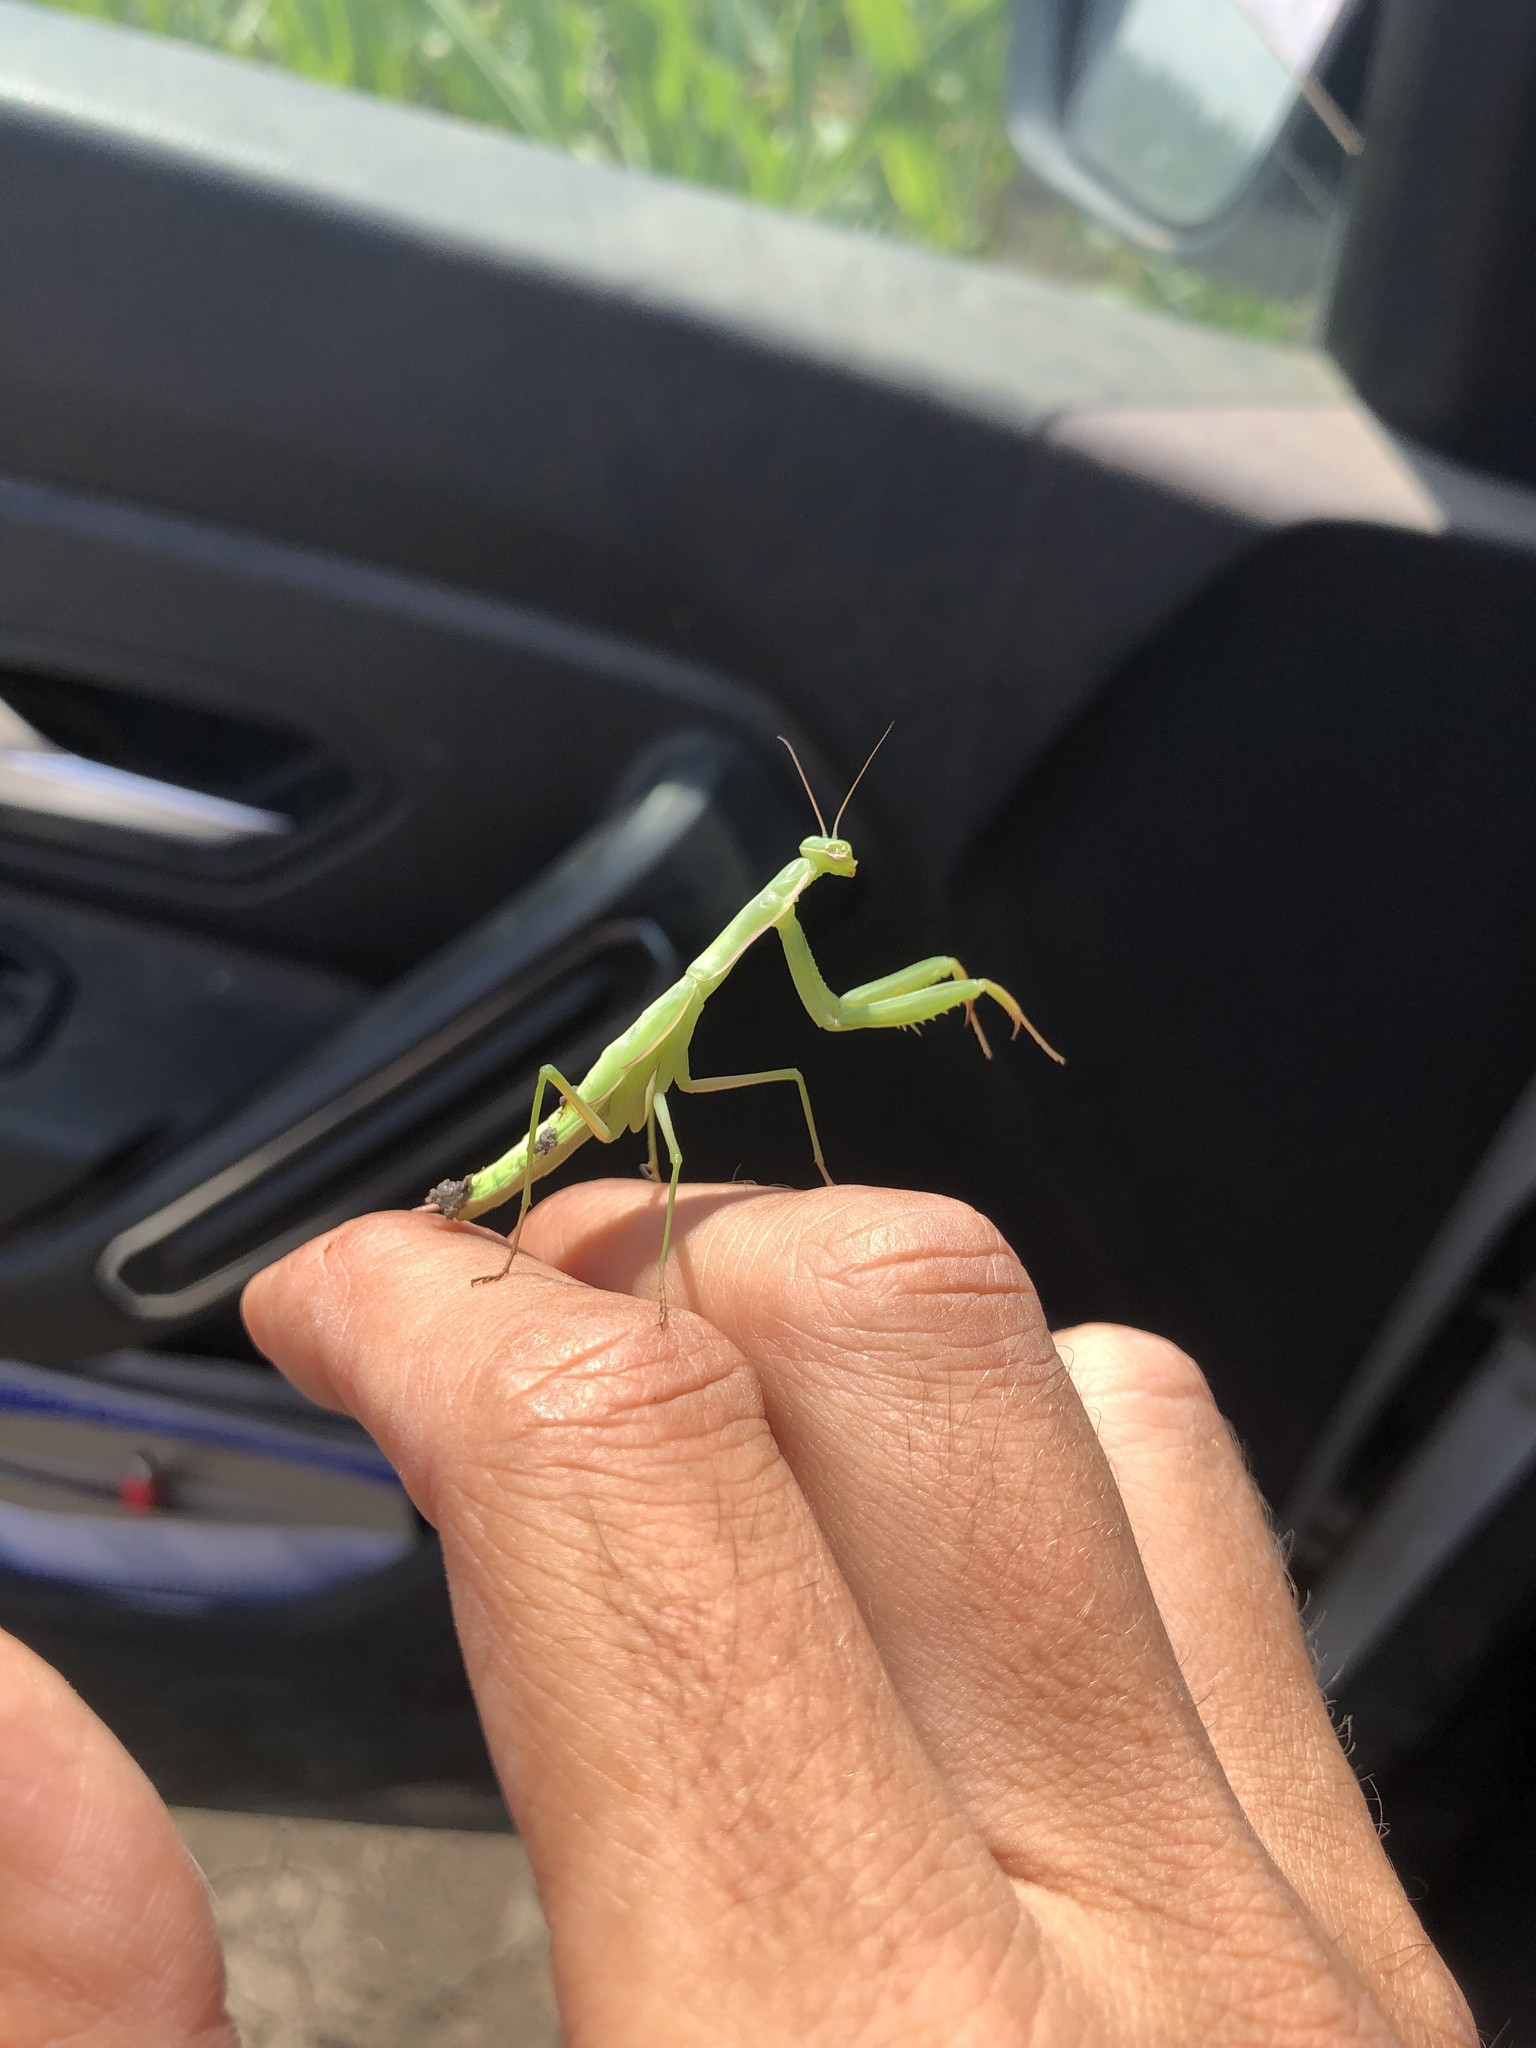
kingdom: Animalia
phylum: Arthropoda
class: Insecta
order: Mantodea
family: Mantidae
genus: Mantis
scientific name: Mantis religiosa
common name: Praying mantis
